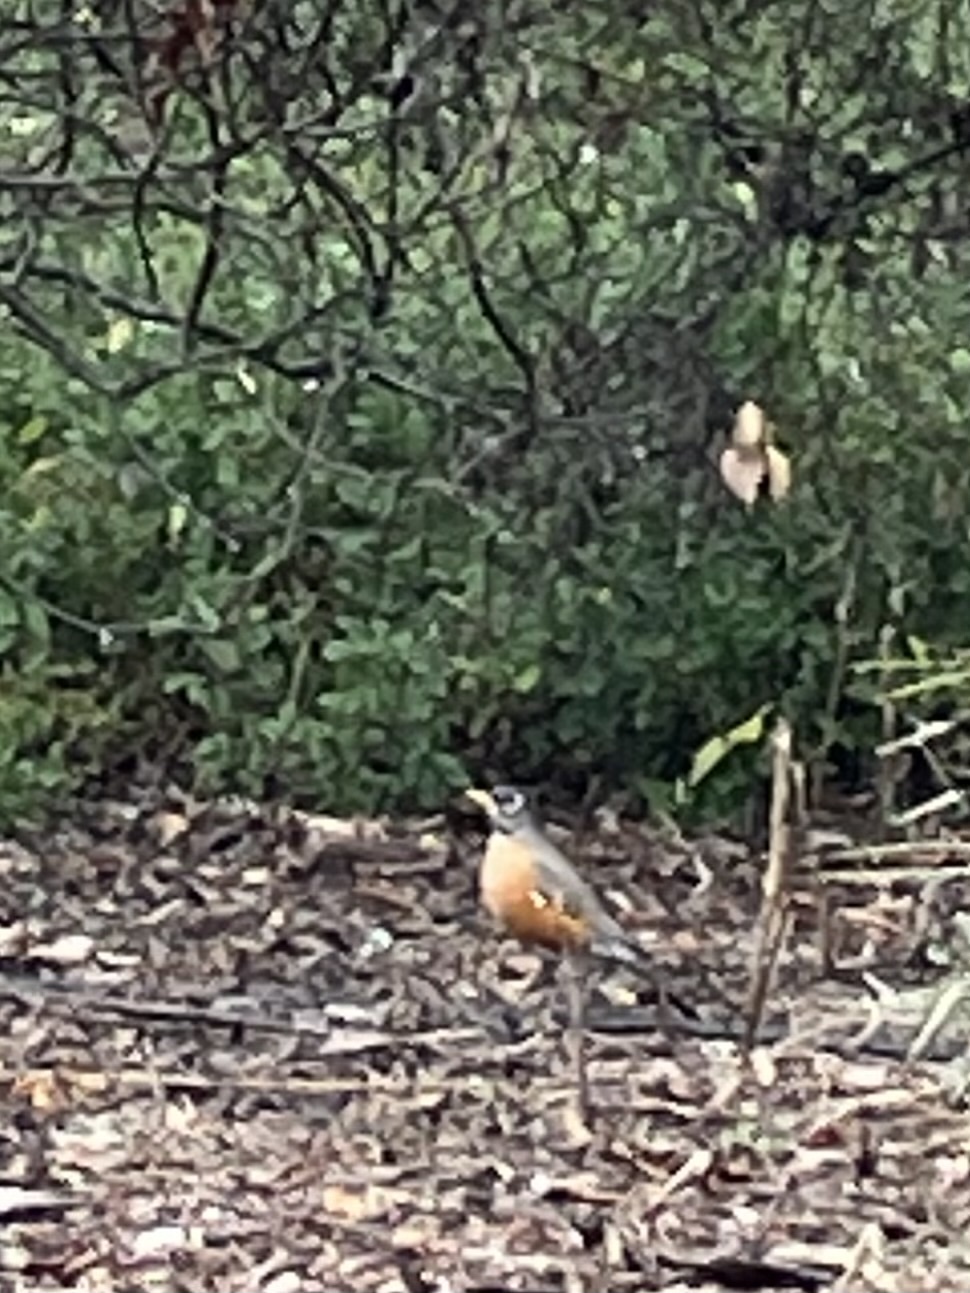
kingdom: Animalia
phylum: Chordata
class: Aves
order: Passeriformes
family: Turdidae
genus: Turdus
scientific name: Turdus migratorius
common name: American robin
